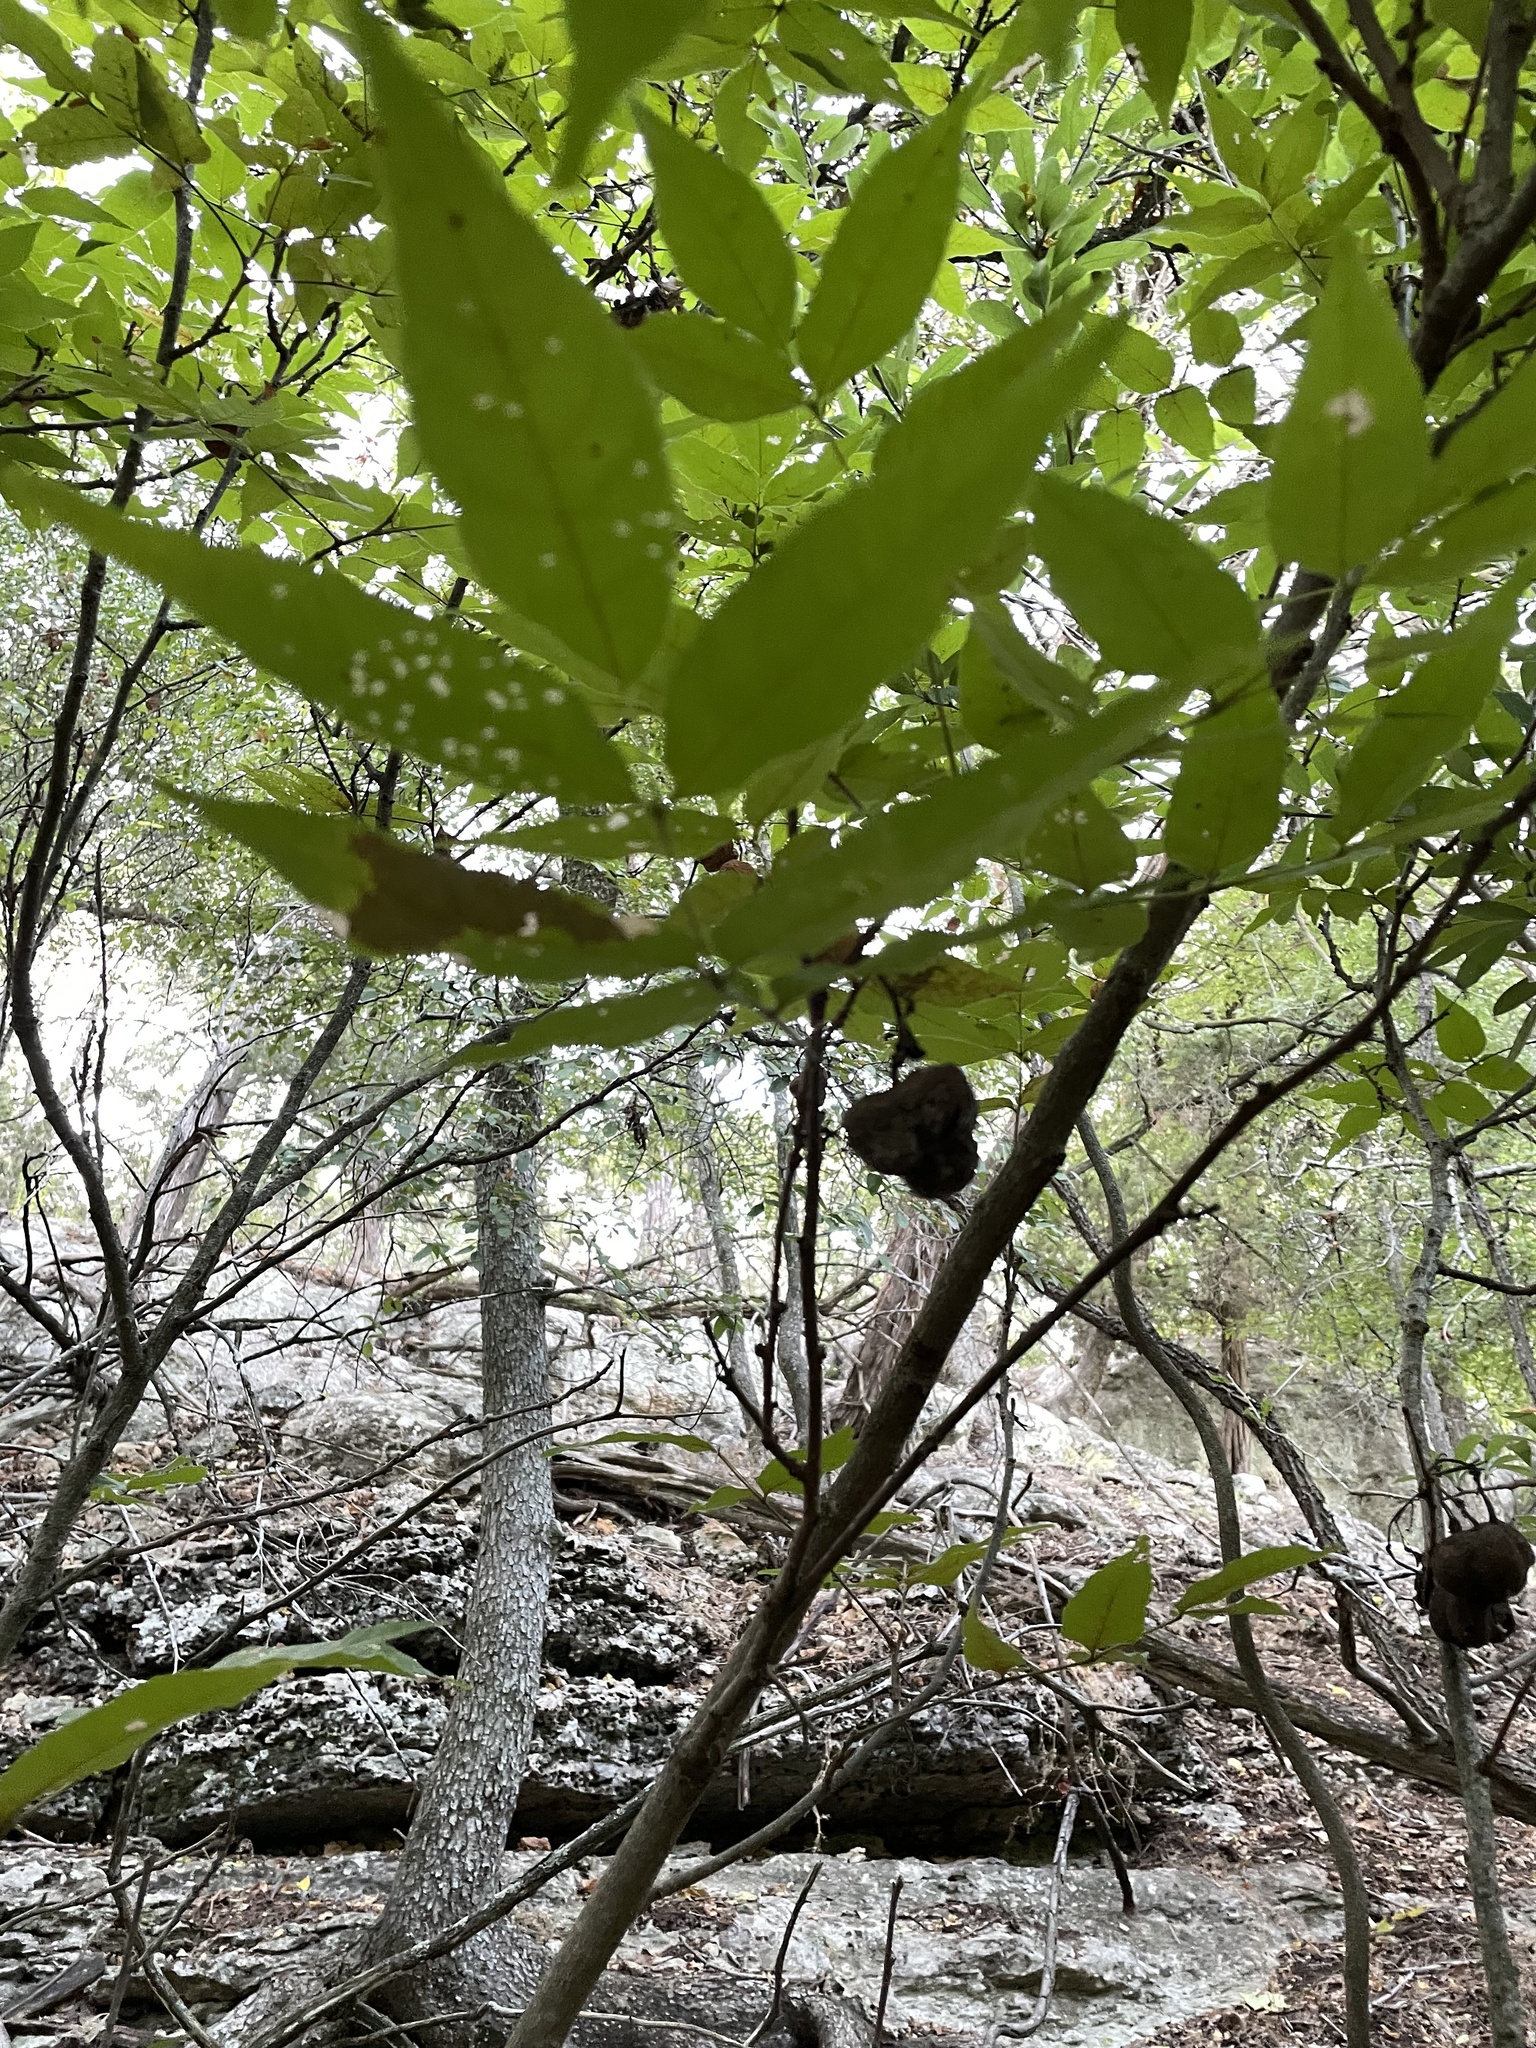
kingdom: Plantae
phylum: Tracheophyta
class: Magnoliopsida
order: Sapindales
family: Sapindaceae
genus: Ungnadia
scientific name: Ungnadia speciosa
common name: Texas-buckeye
